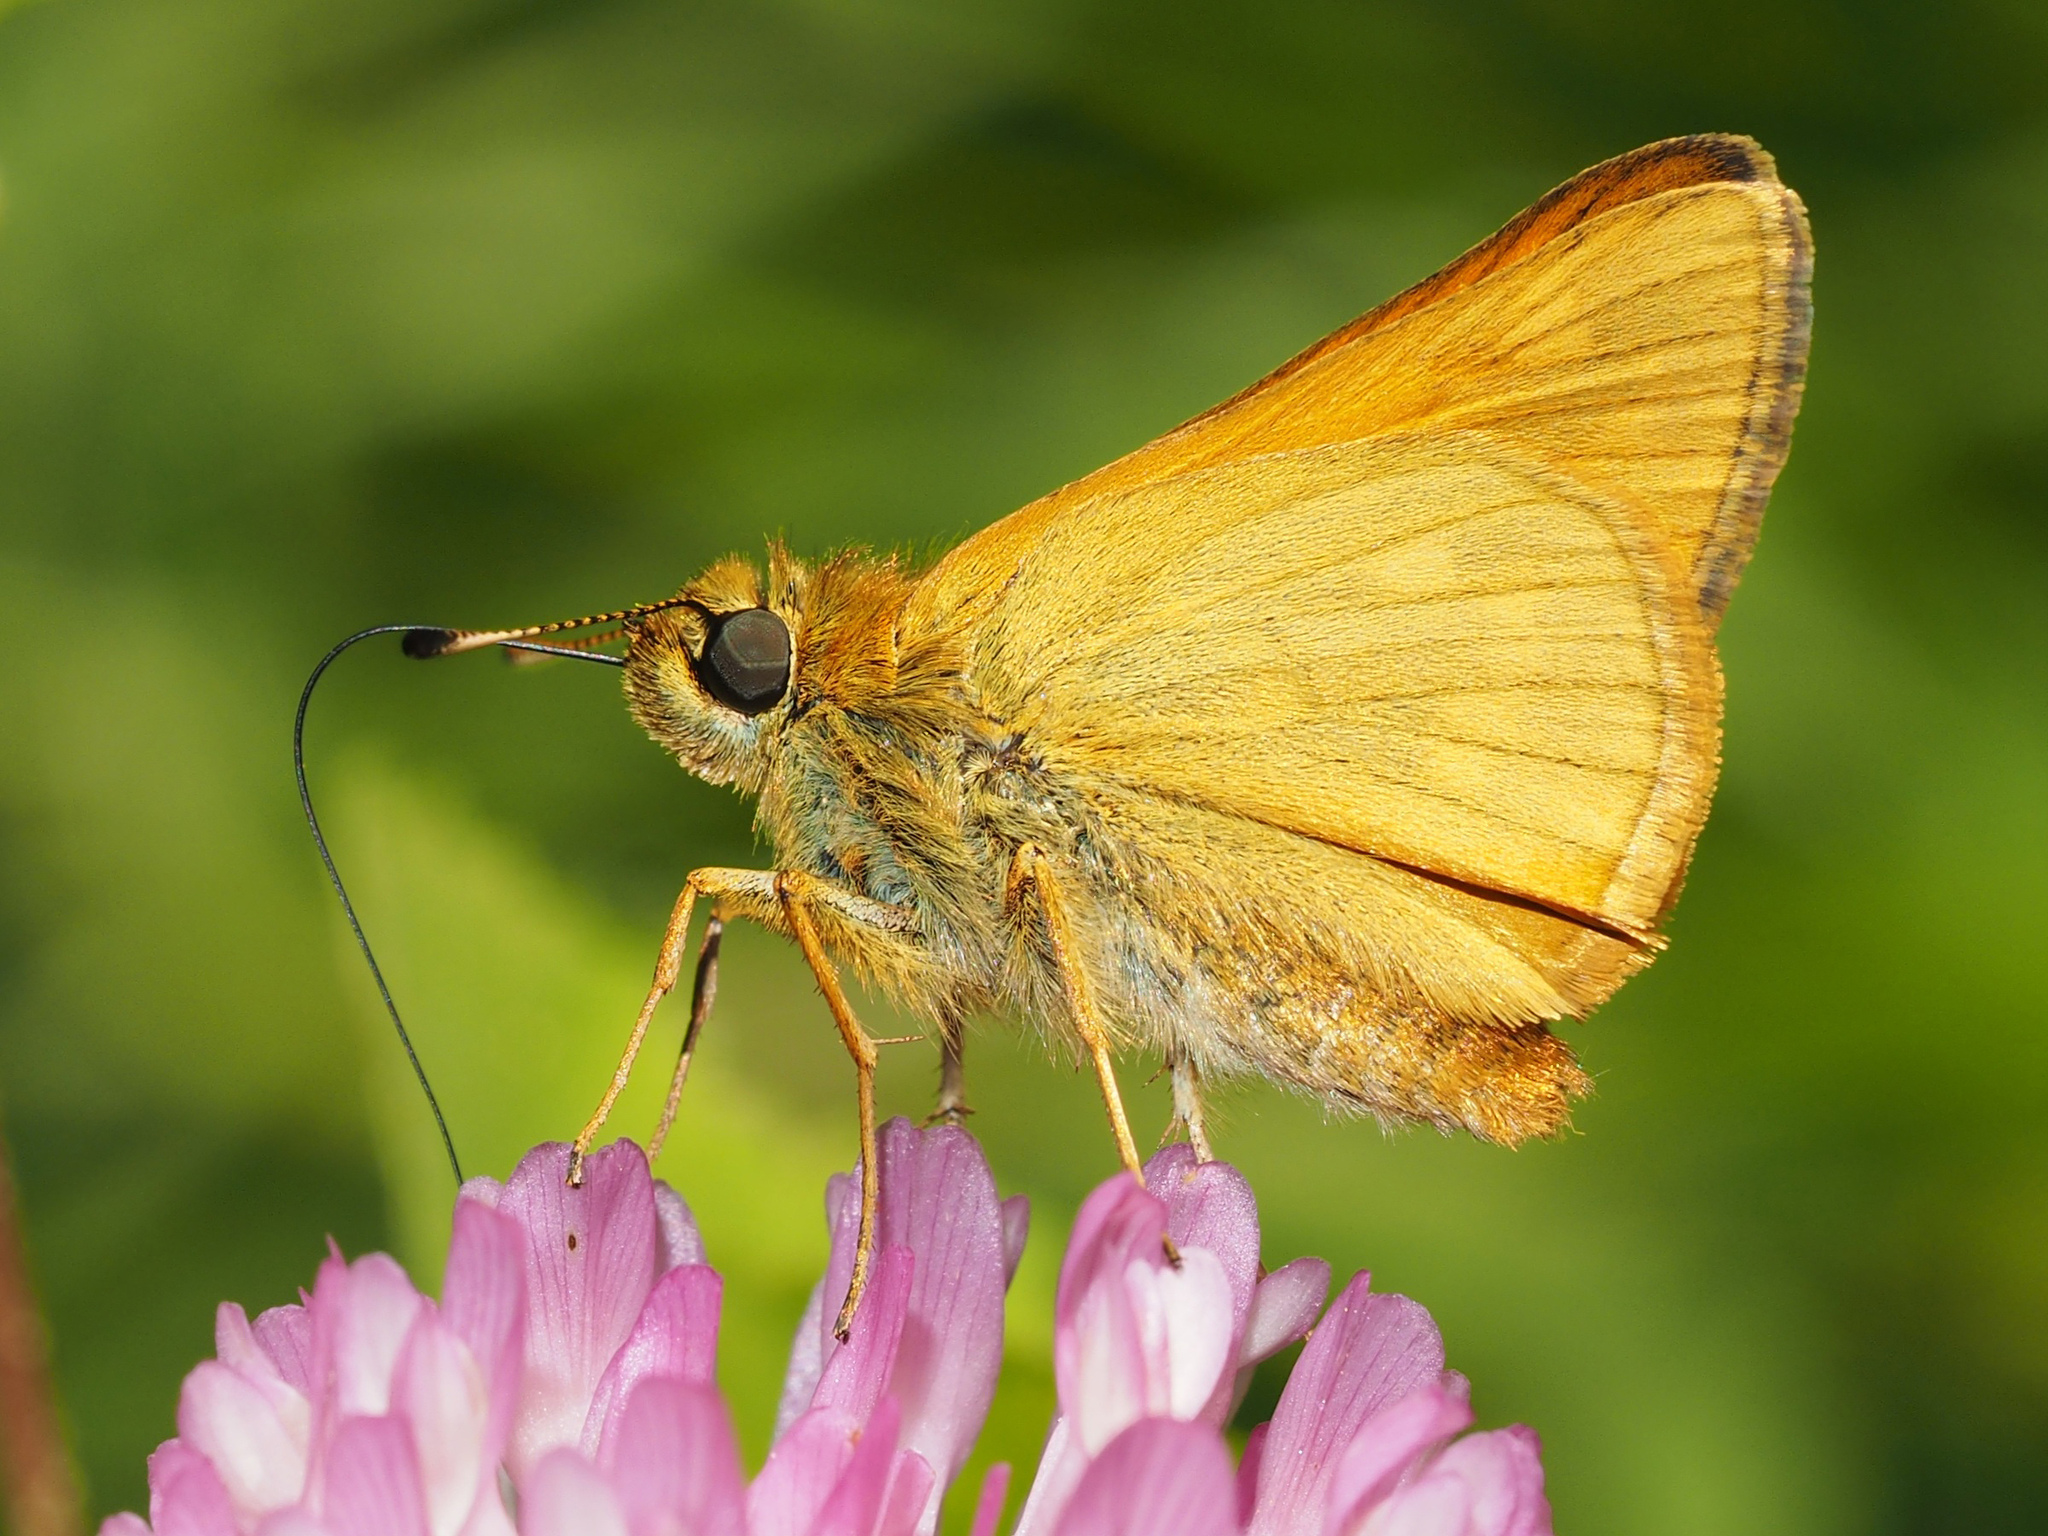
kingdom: Animalia
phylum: Arthropoda
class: Insecta
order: Lepidoptera
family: Hesperiidae
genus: Ochlodes
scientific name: Ochlodes venata
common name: Large skipper
